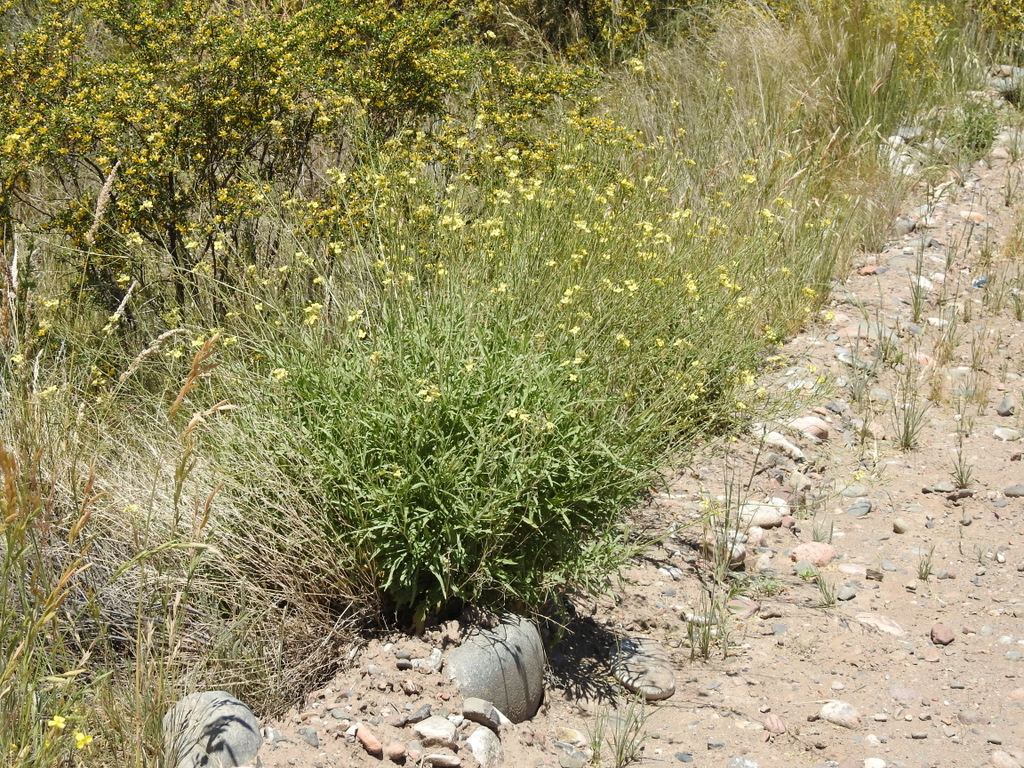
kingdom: Plantae
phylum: Tracheophyta
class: Magnoliopsida
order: Brassicales
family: Brassicaceae
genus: Diplotaxis
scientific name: Diplotaxis tenuifolia
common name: Perennial wall-rocket
